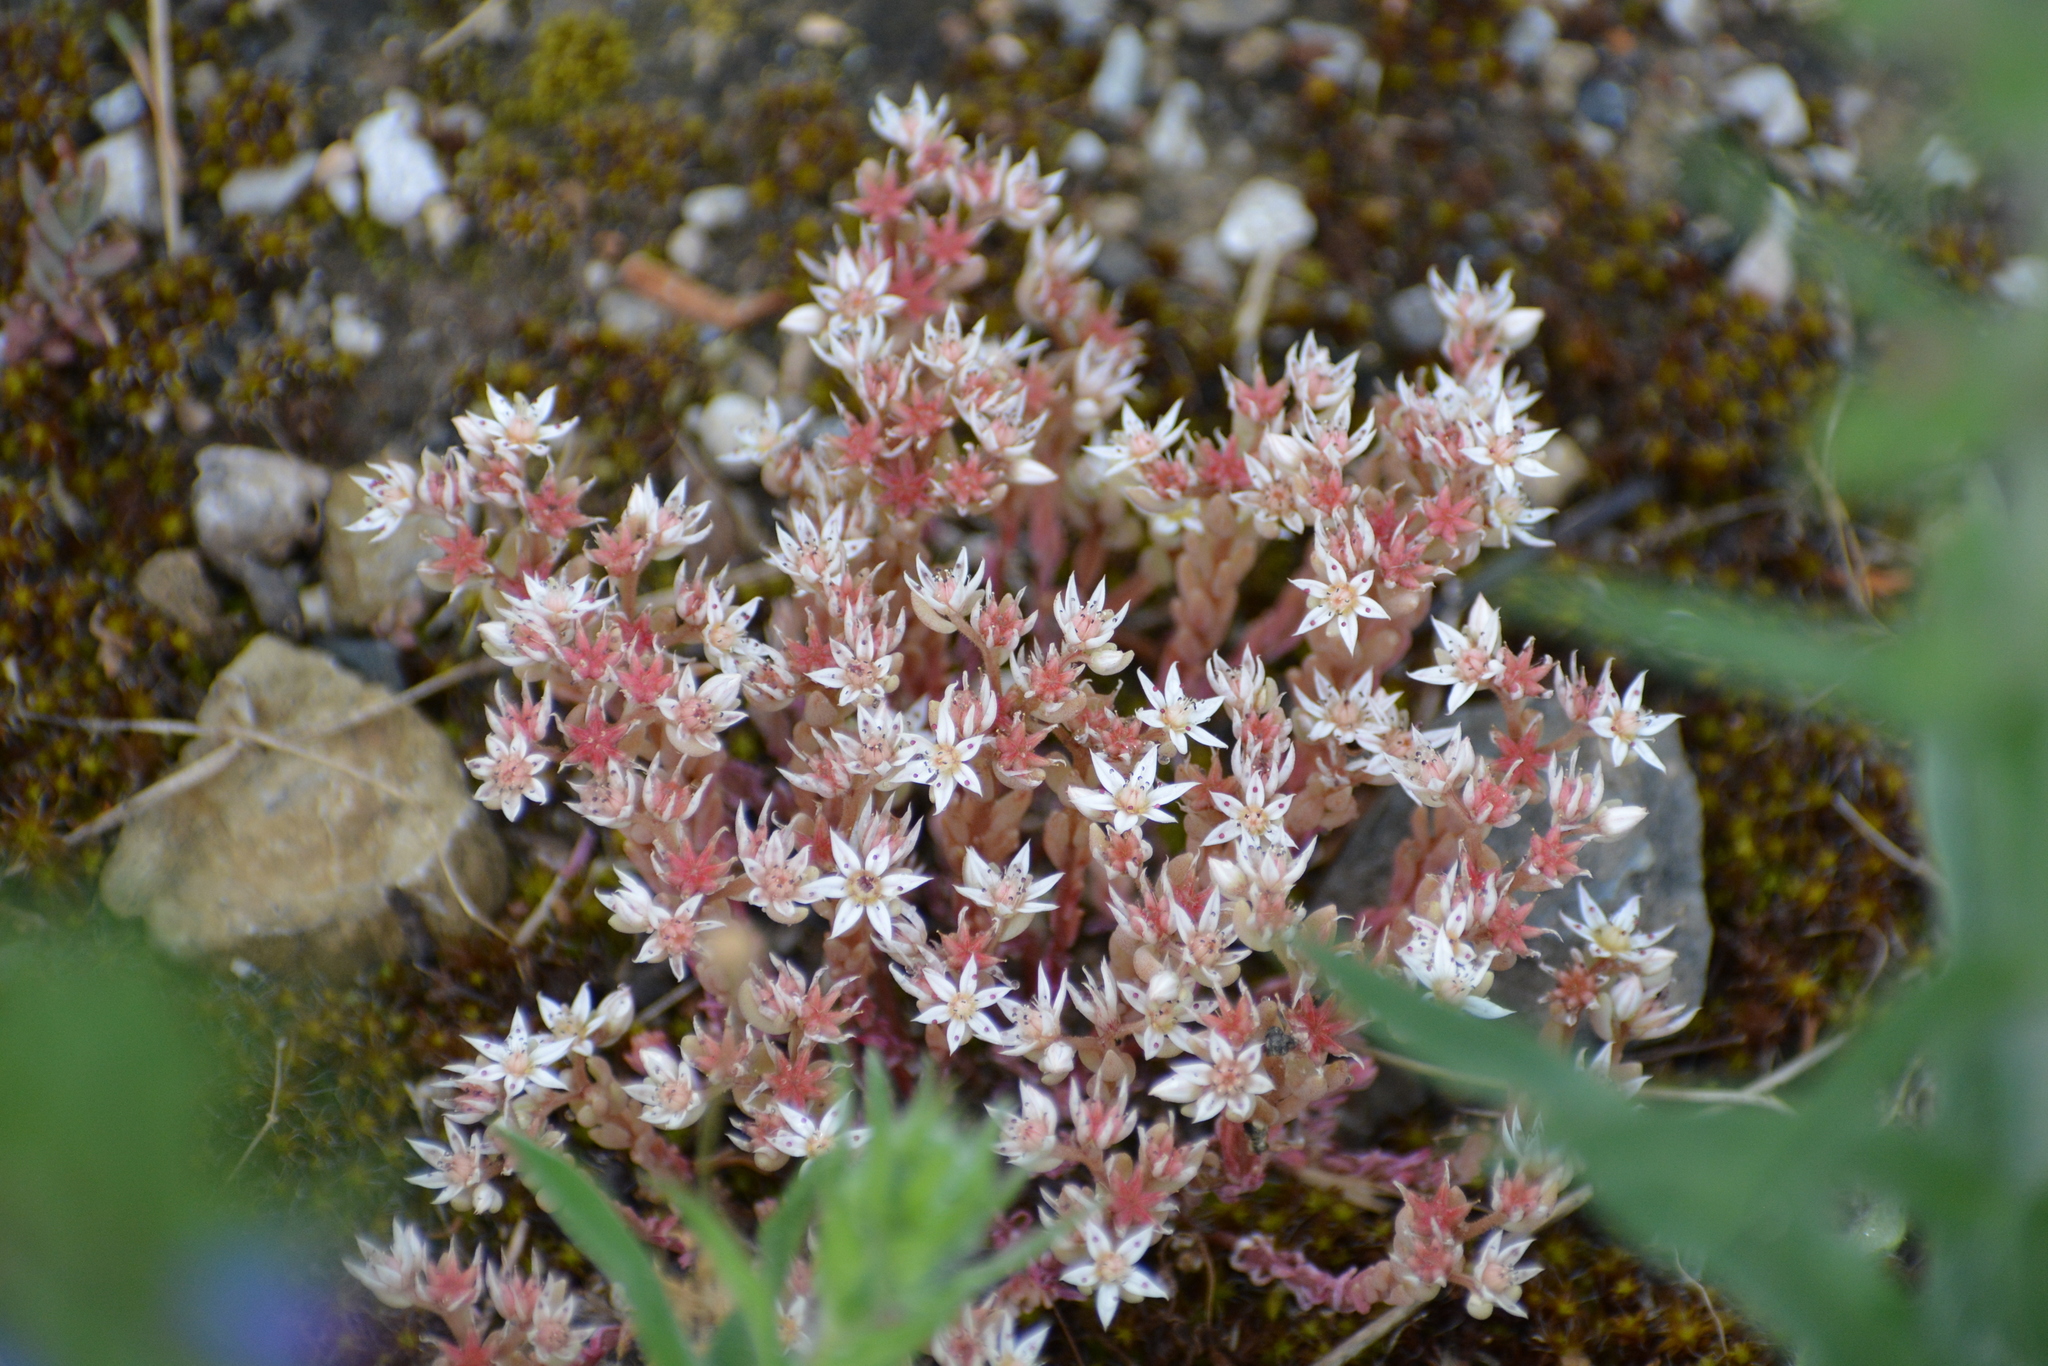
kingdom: Plantae
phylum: Tracheophyta
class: Magnoliopsida
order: Saxifragales
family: Crassulaceae
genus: Sedum
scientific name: Sedum hispanicum
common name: Spanish stonecrop
